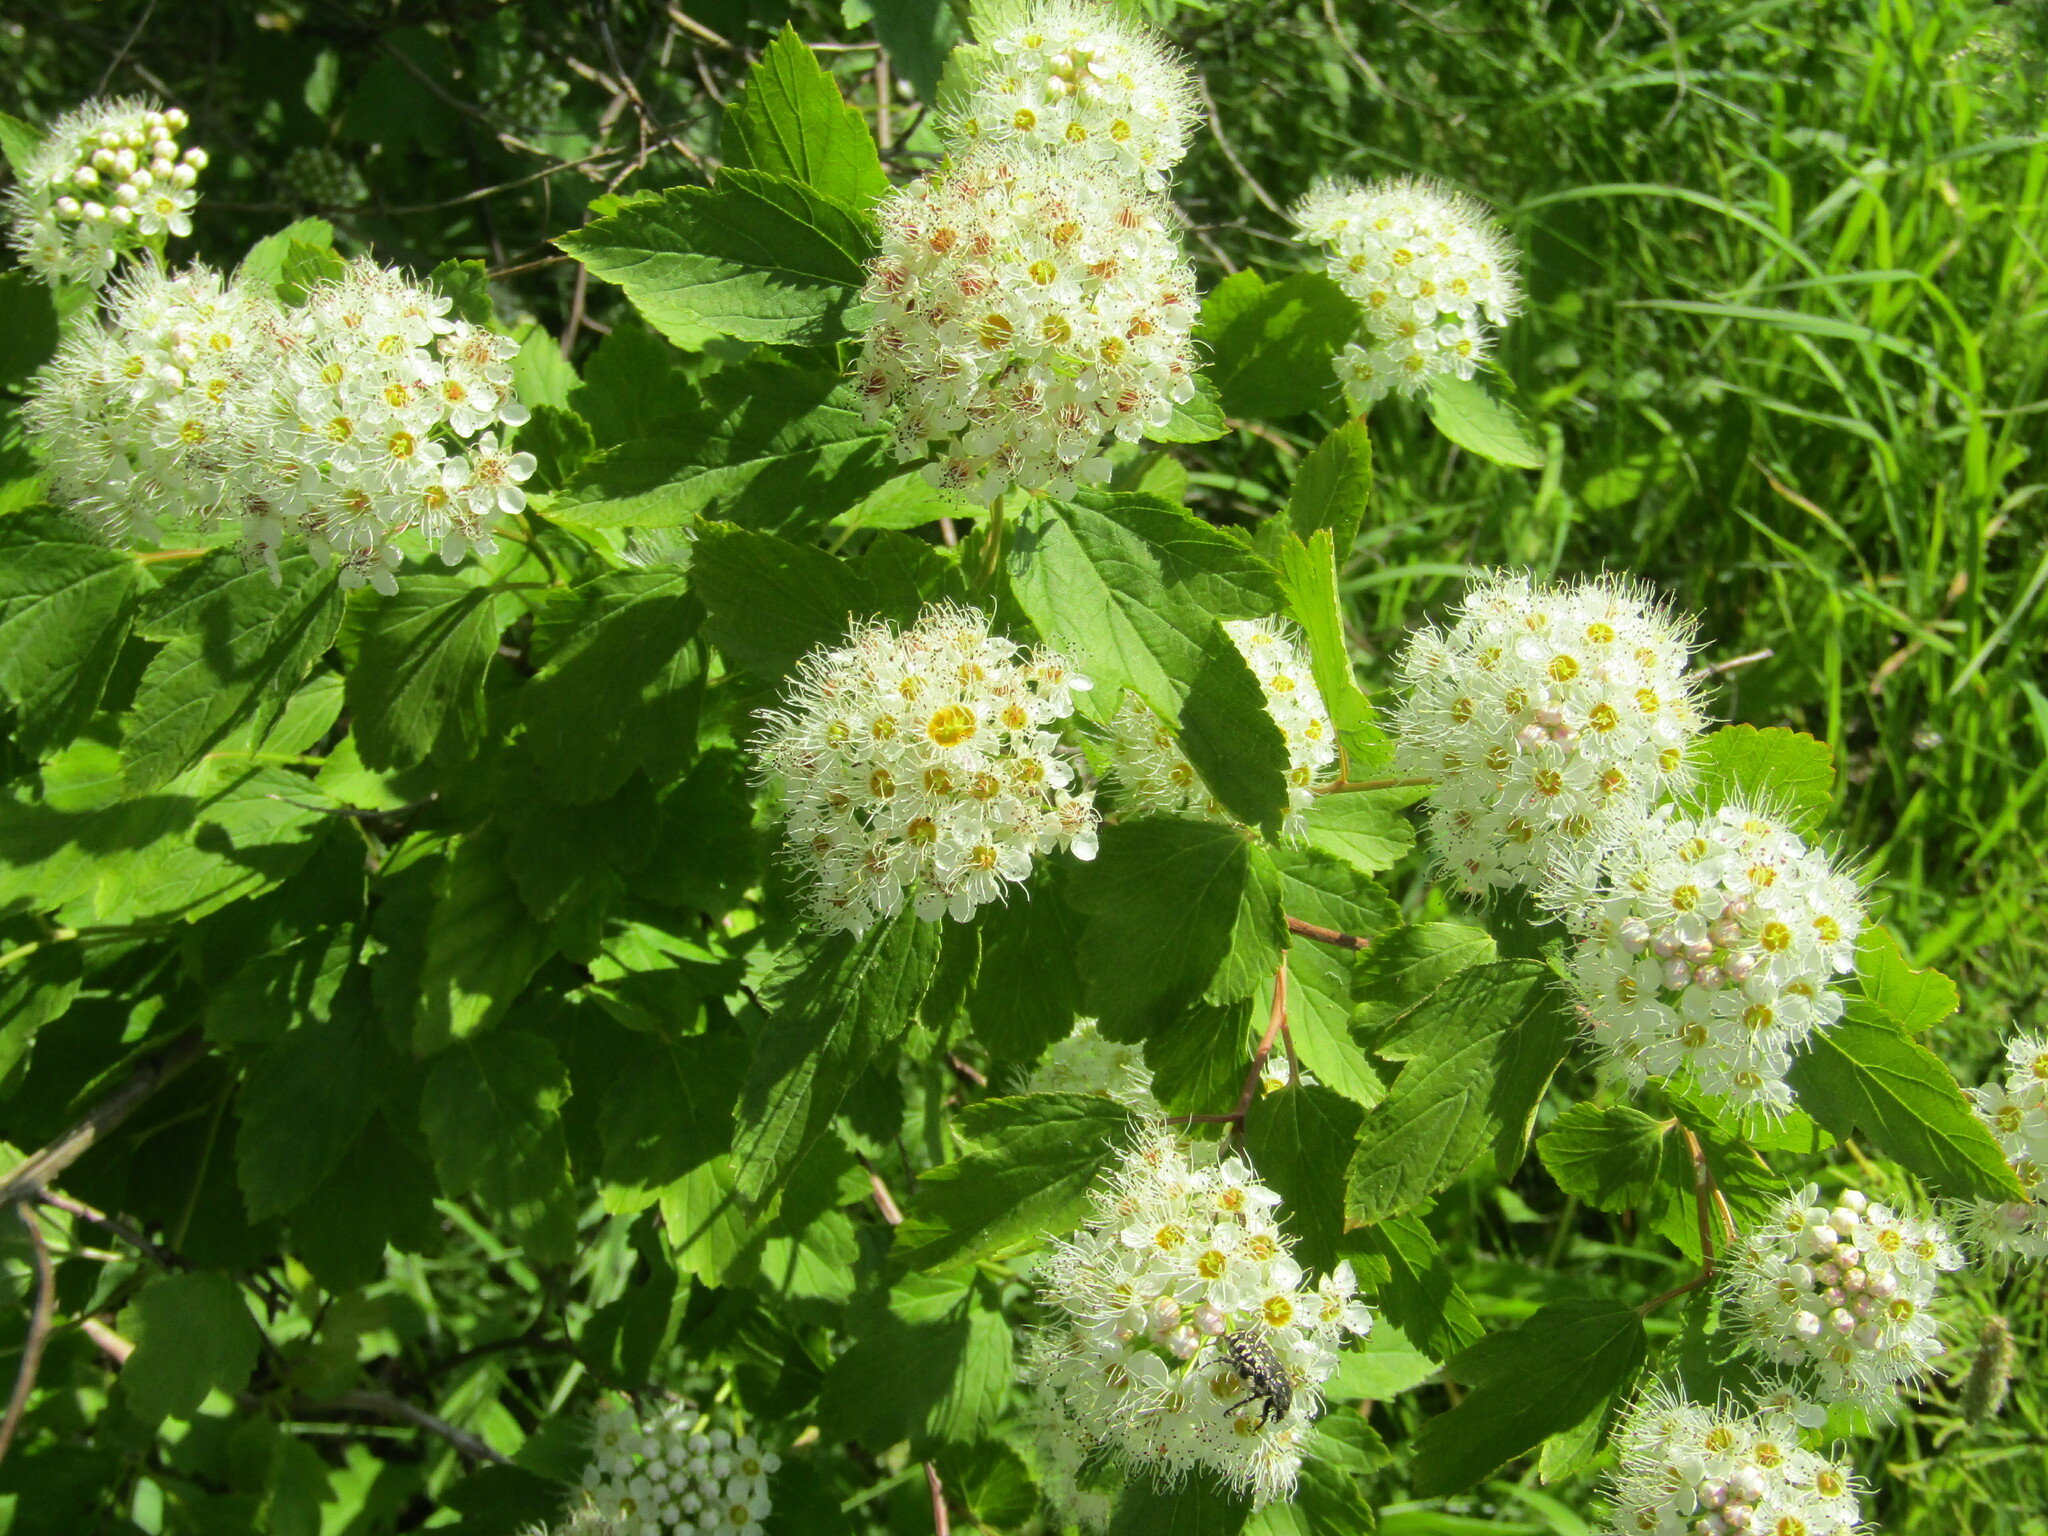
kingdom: Plantae
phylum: Tracheophyta
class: Magnoliopsida
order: Rosales
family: Rosaceae
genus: Physocarpus
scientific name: Physocarpus opulifolius
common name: Ninebark
